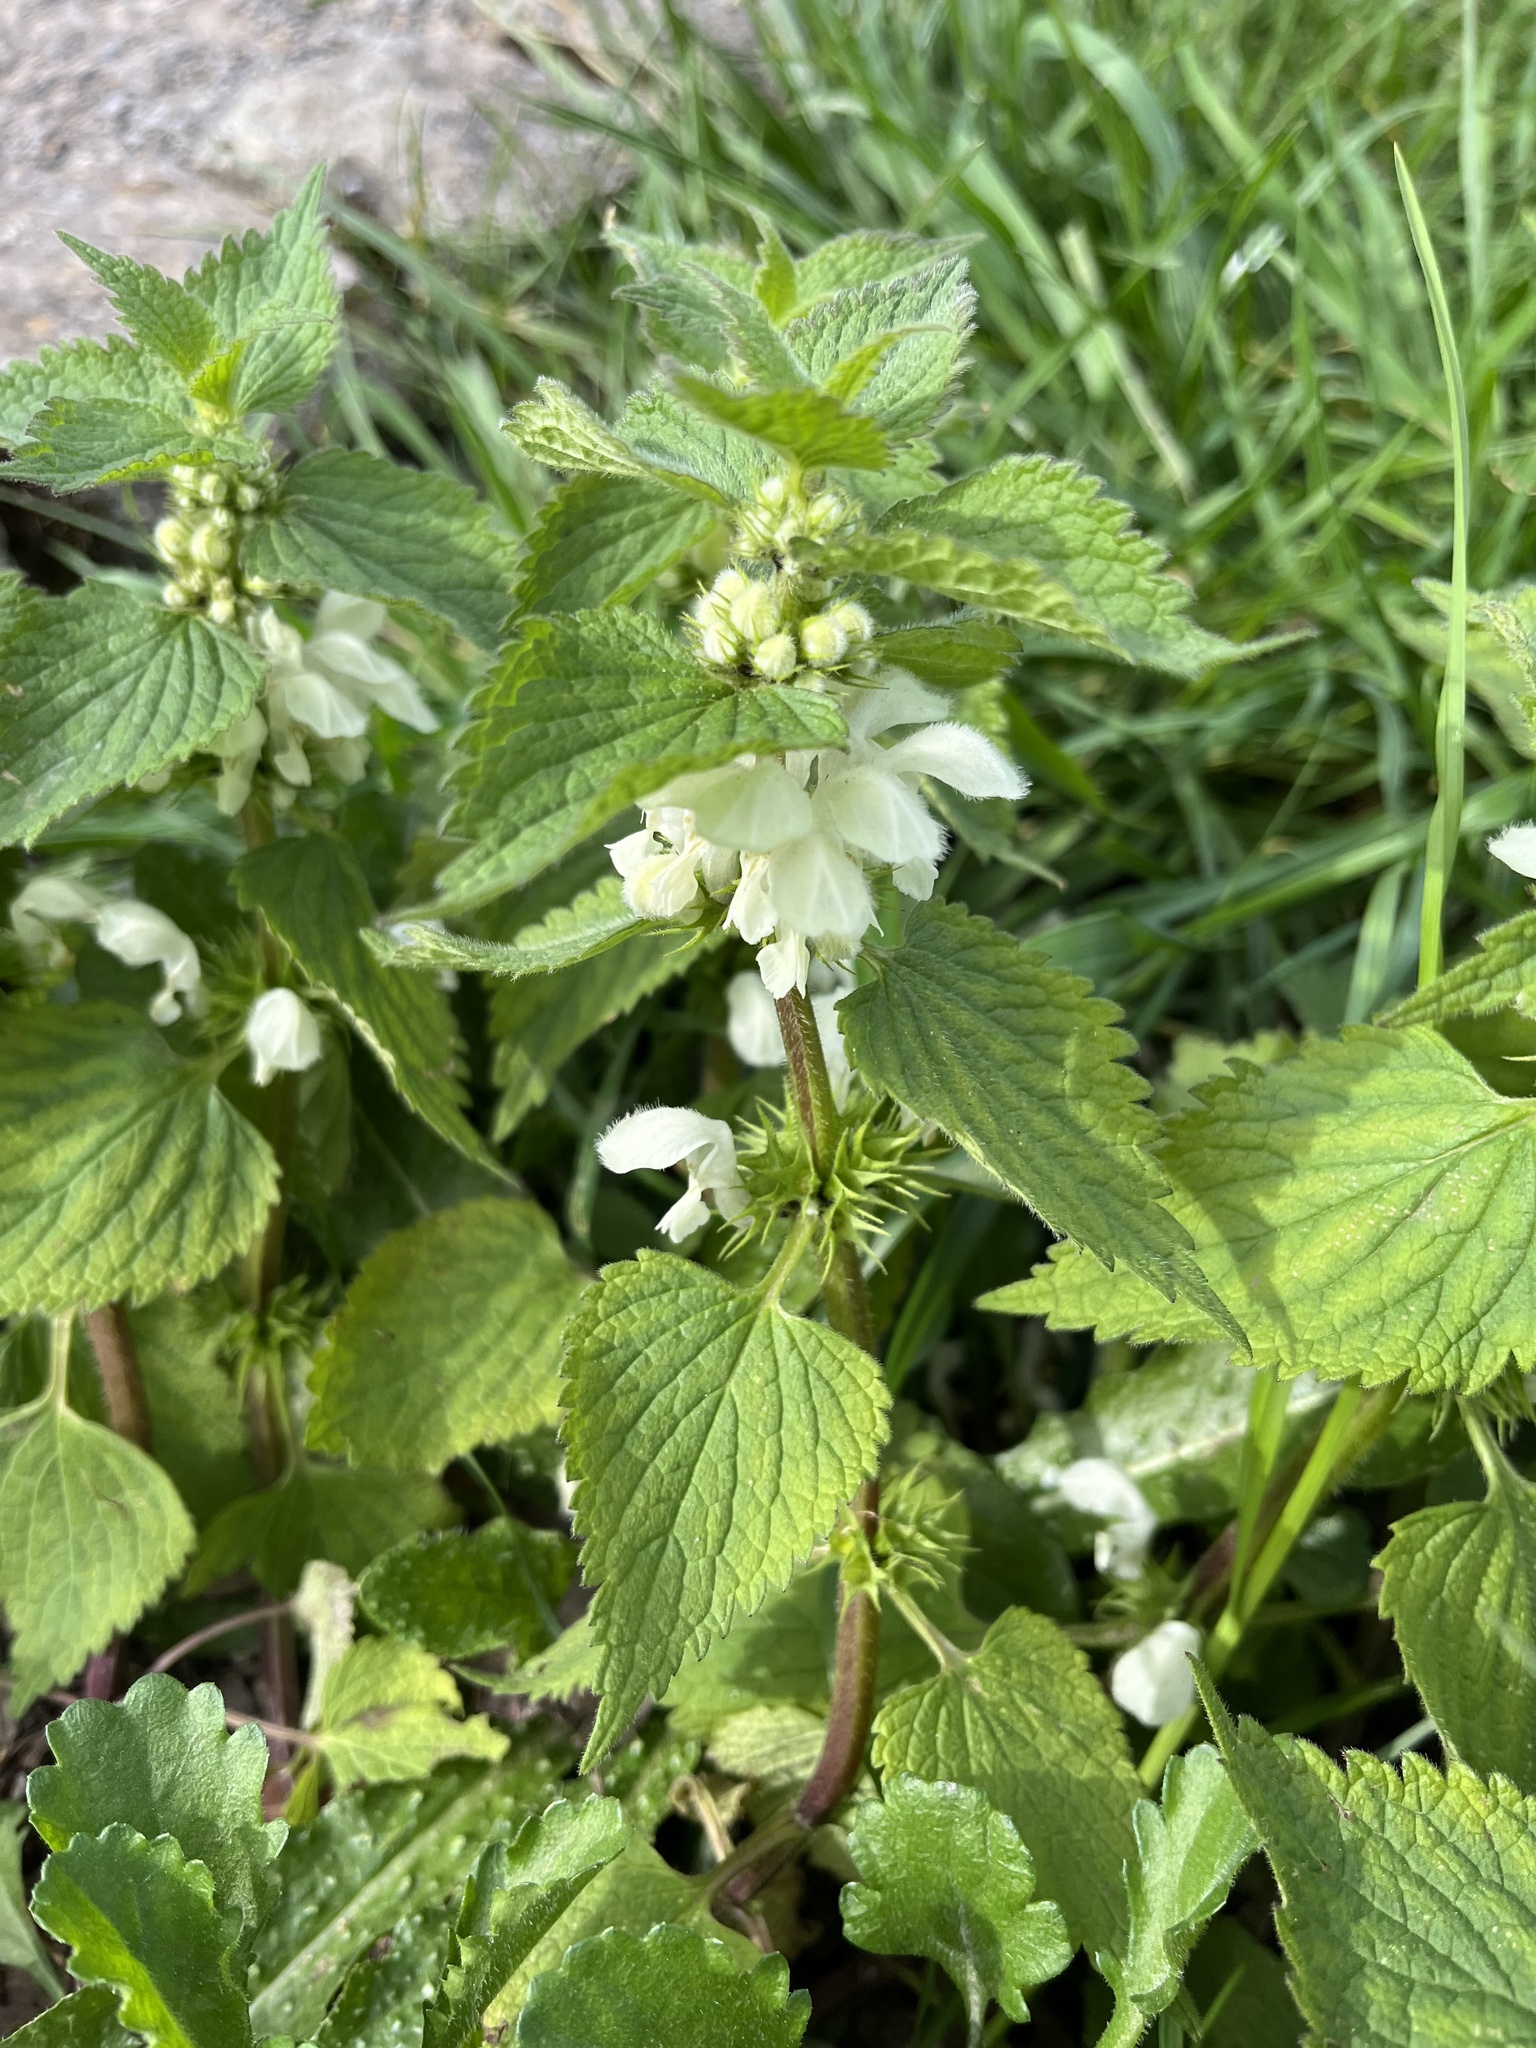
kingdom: Plantae
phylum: Tracheophyta
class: Magnoliopsida
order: Lamiales
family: Lamiaceae
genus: Lamium
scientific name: Lamium album
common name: White dead-nettle
